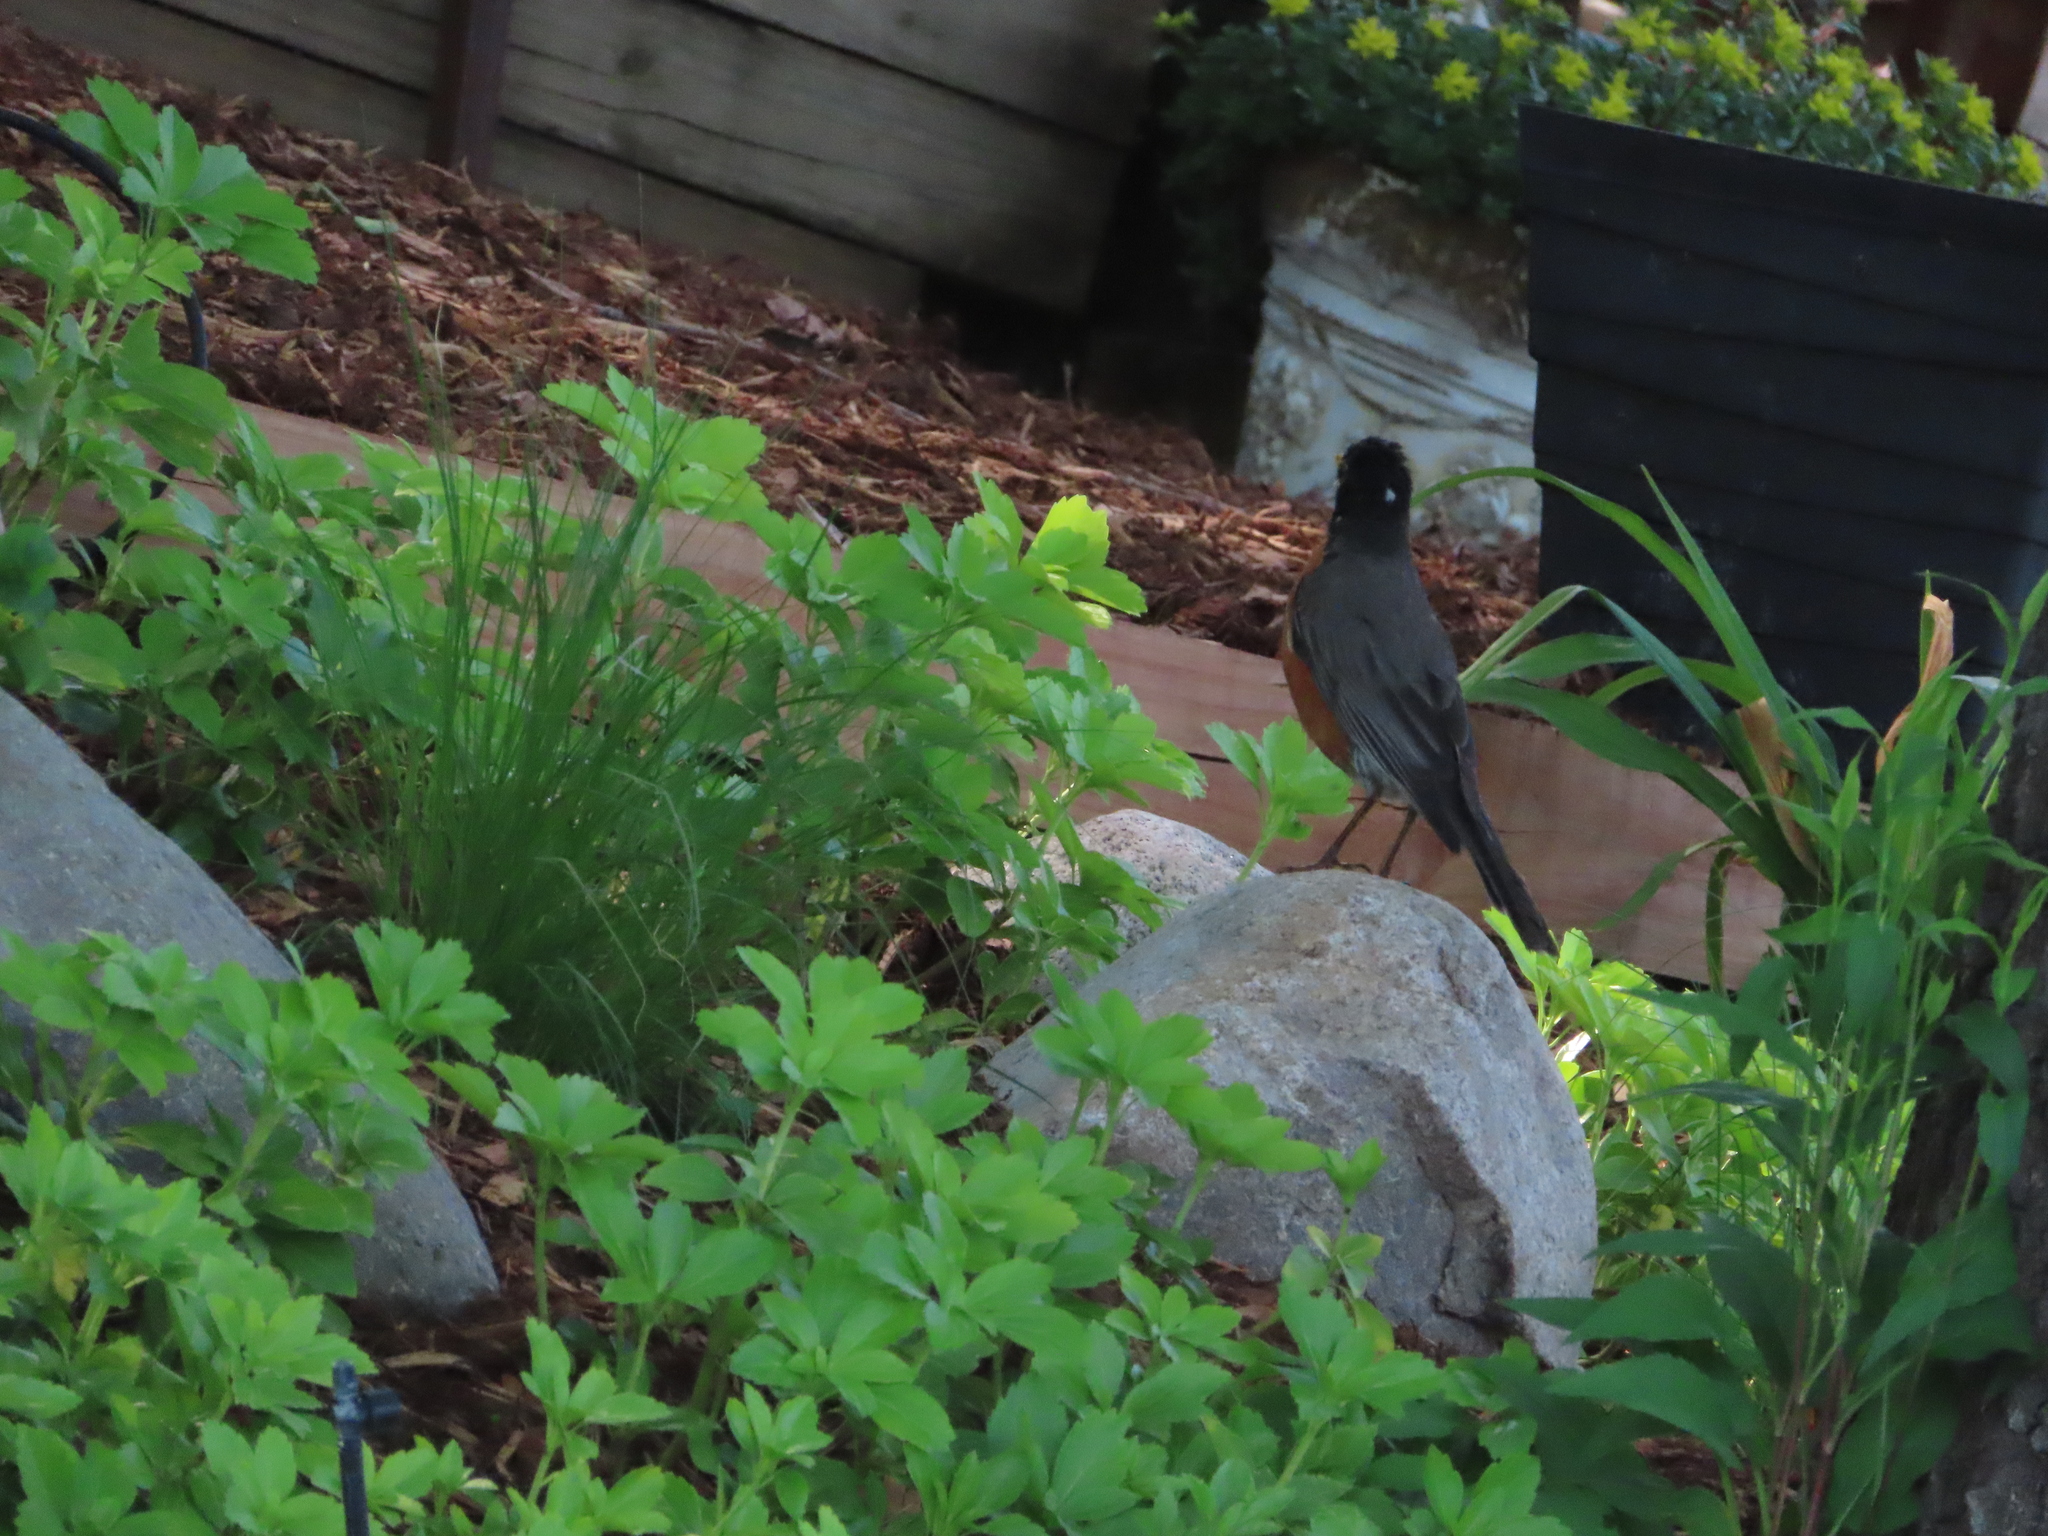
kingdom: Animalia
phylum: Chordata
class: Aves
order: Passeriformes
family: Turdidae
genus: Turdus
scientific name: Turdus migratorius
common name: American robin
